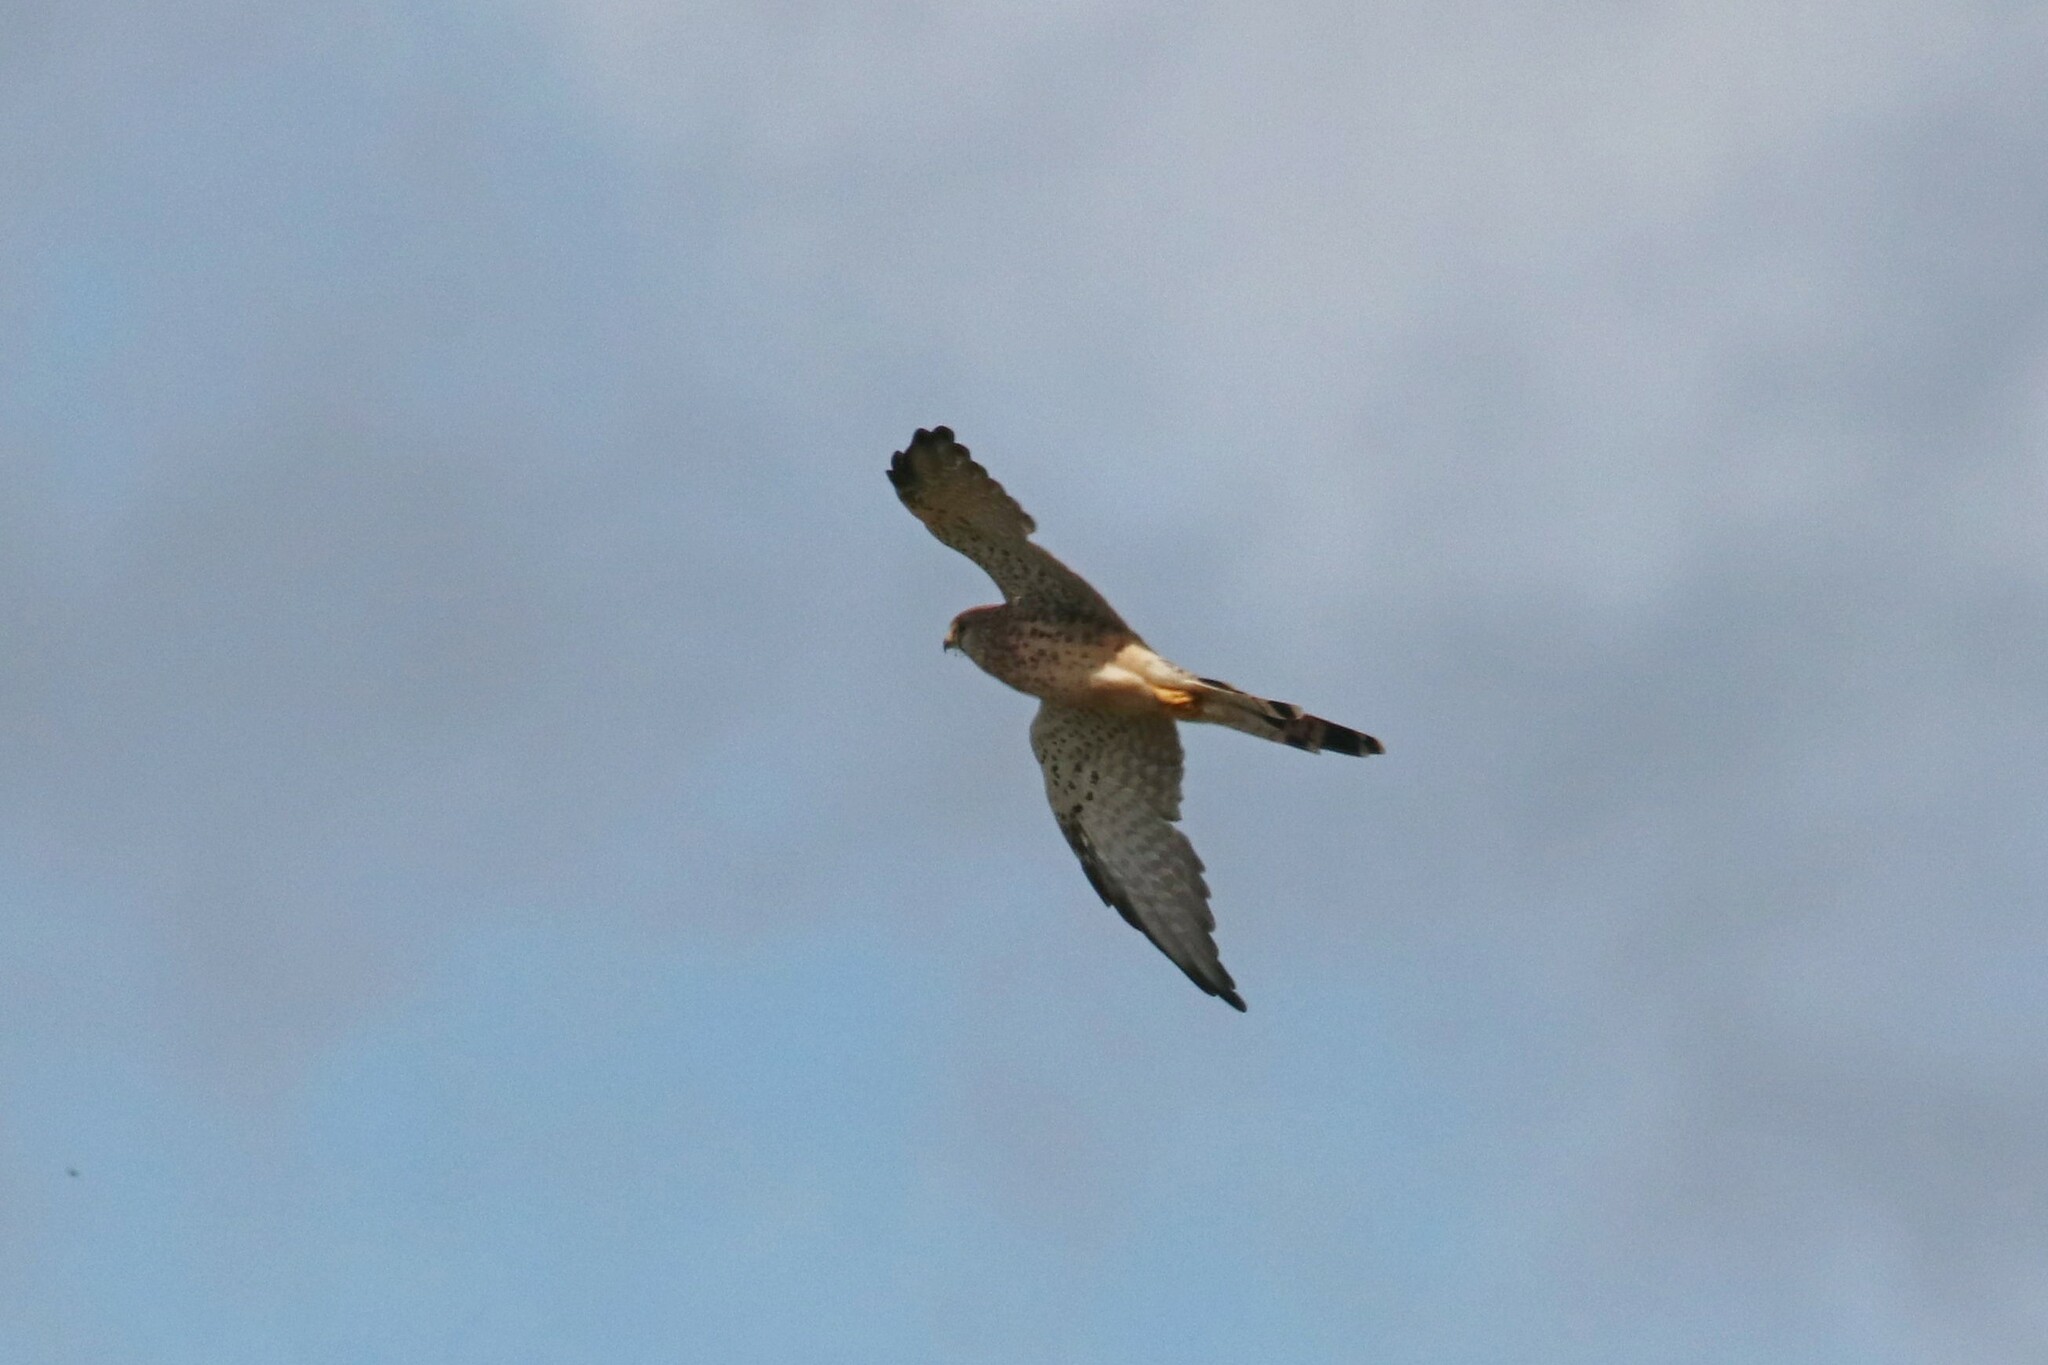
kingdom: Animalia
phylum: Chordata
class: Aves
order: Falconiformes
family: Falconidae
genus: Falco
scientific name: Falco tinnunculus
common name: Common kestrel
